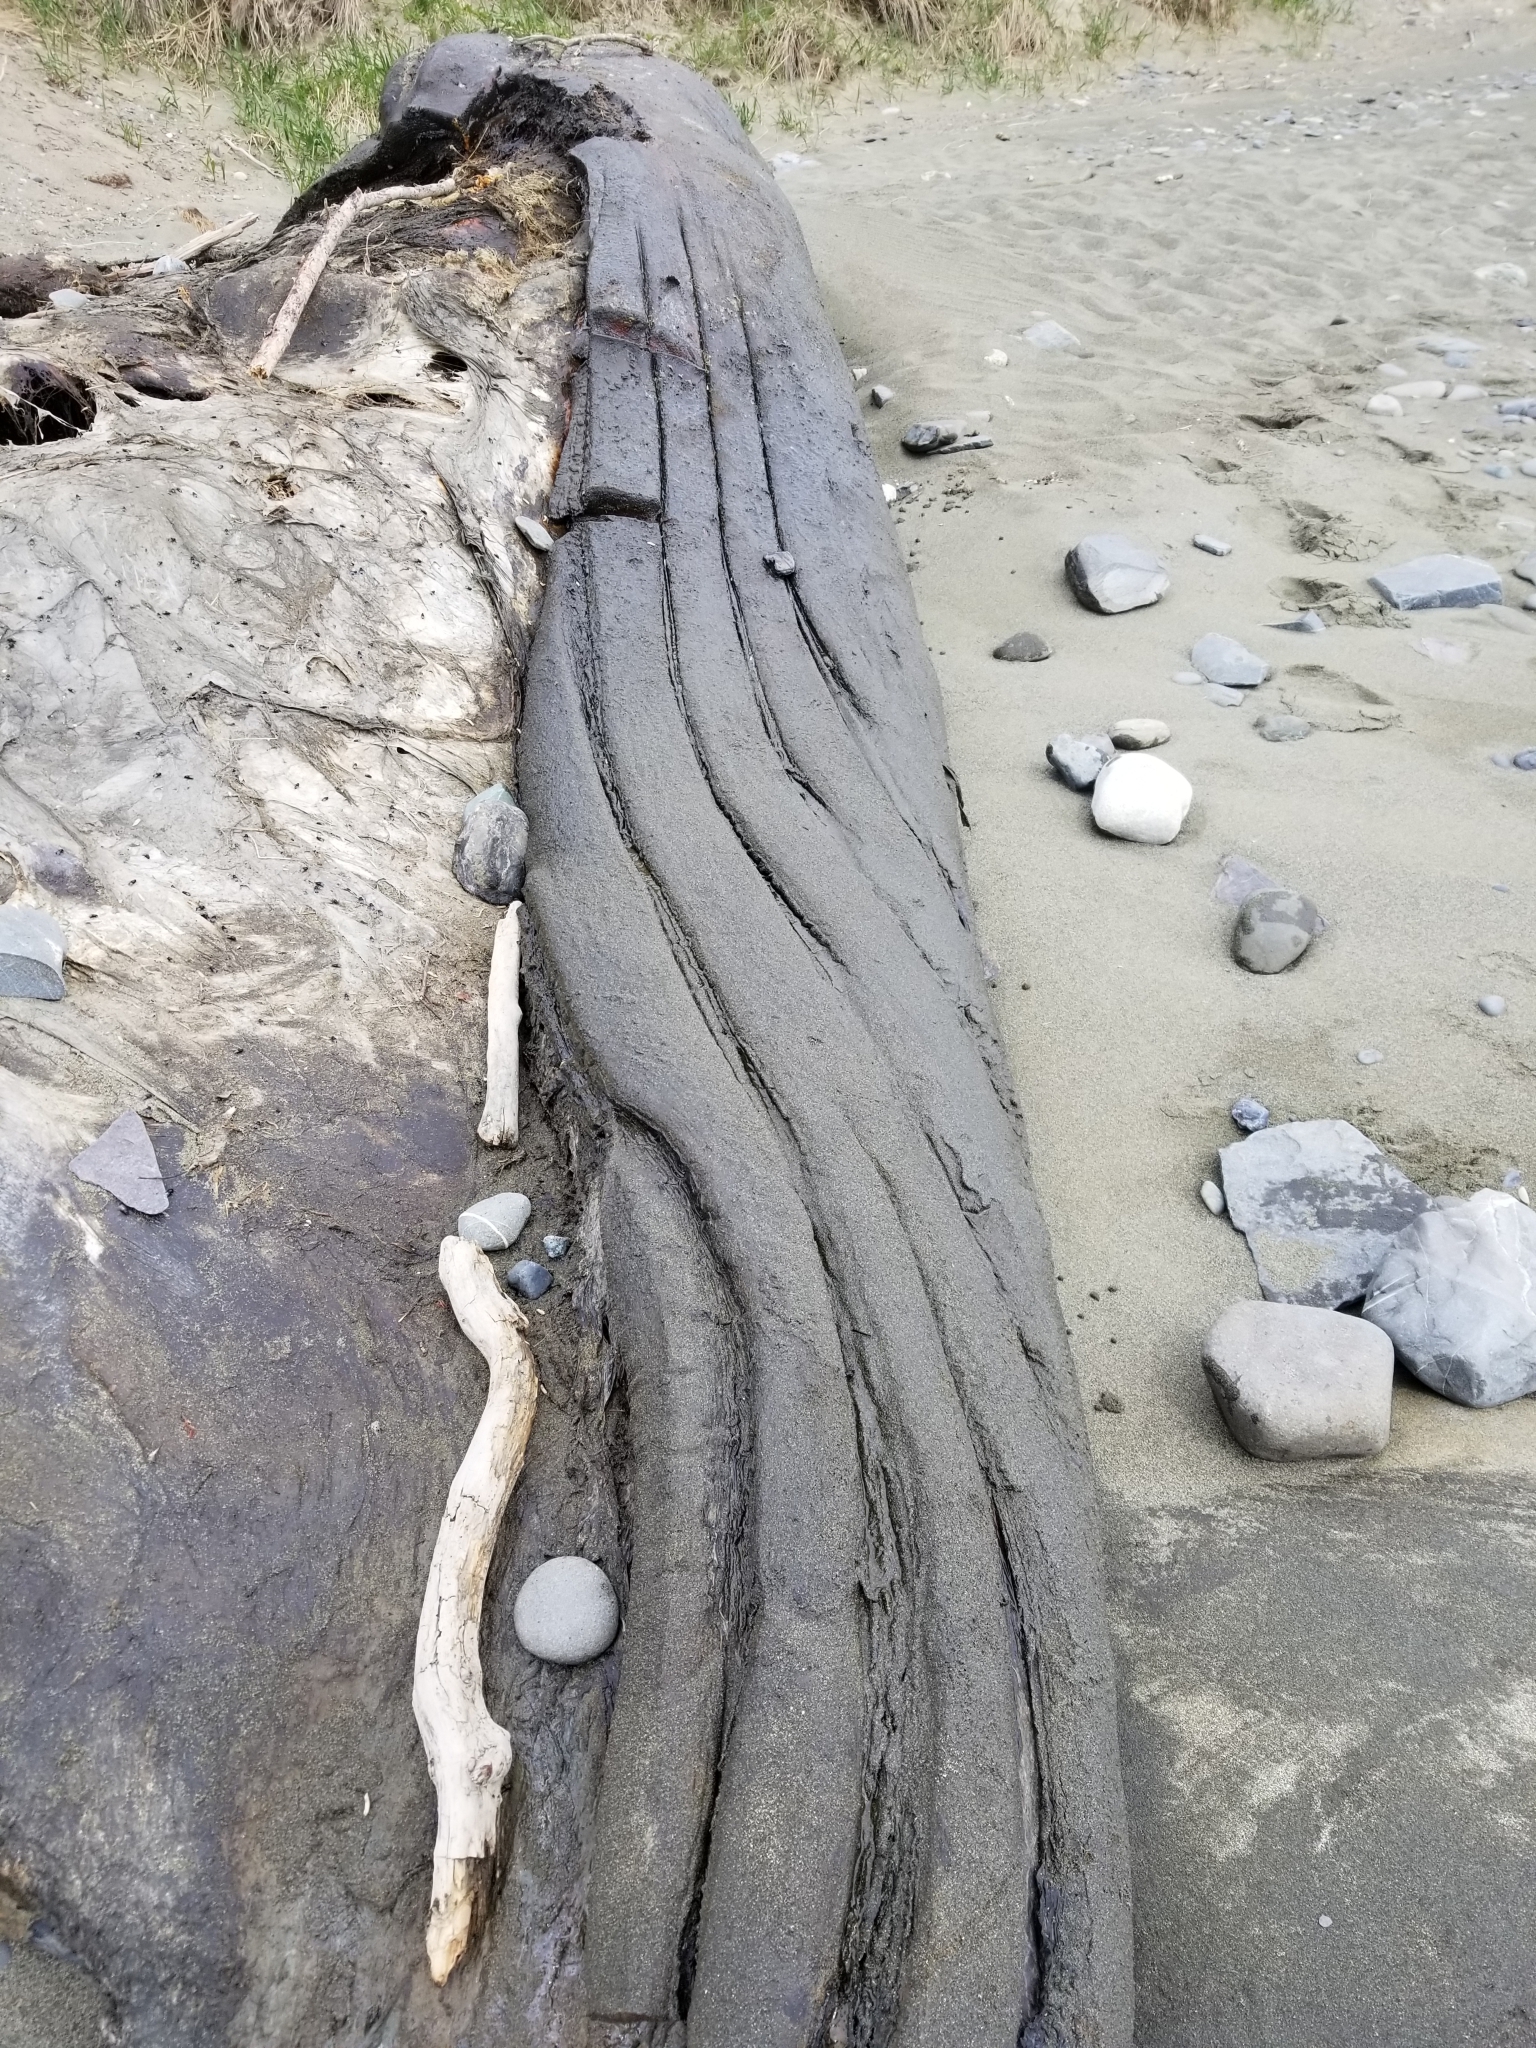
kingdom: Animalia
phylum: Chordata
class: Mammalia
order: Cetacea
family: Balaenopteridae
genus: Megaptera
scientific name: Megaptera novaeangliae
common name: Humpback whale
